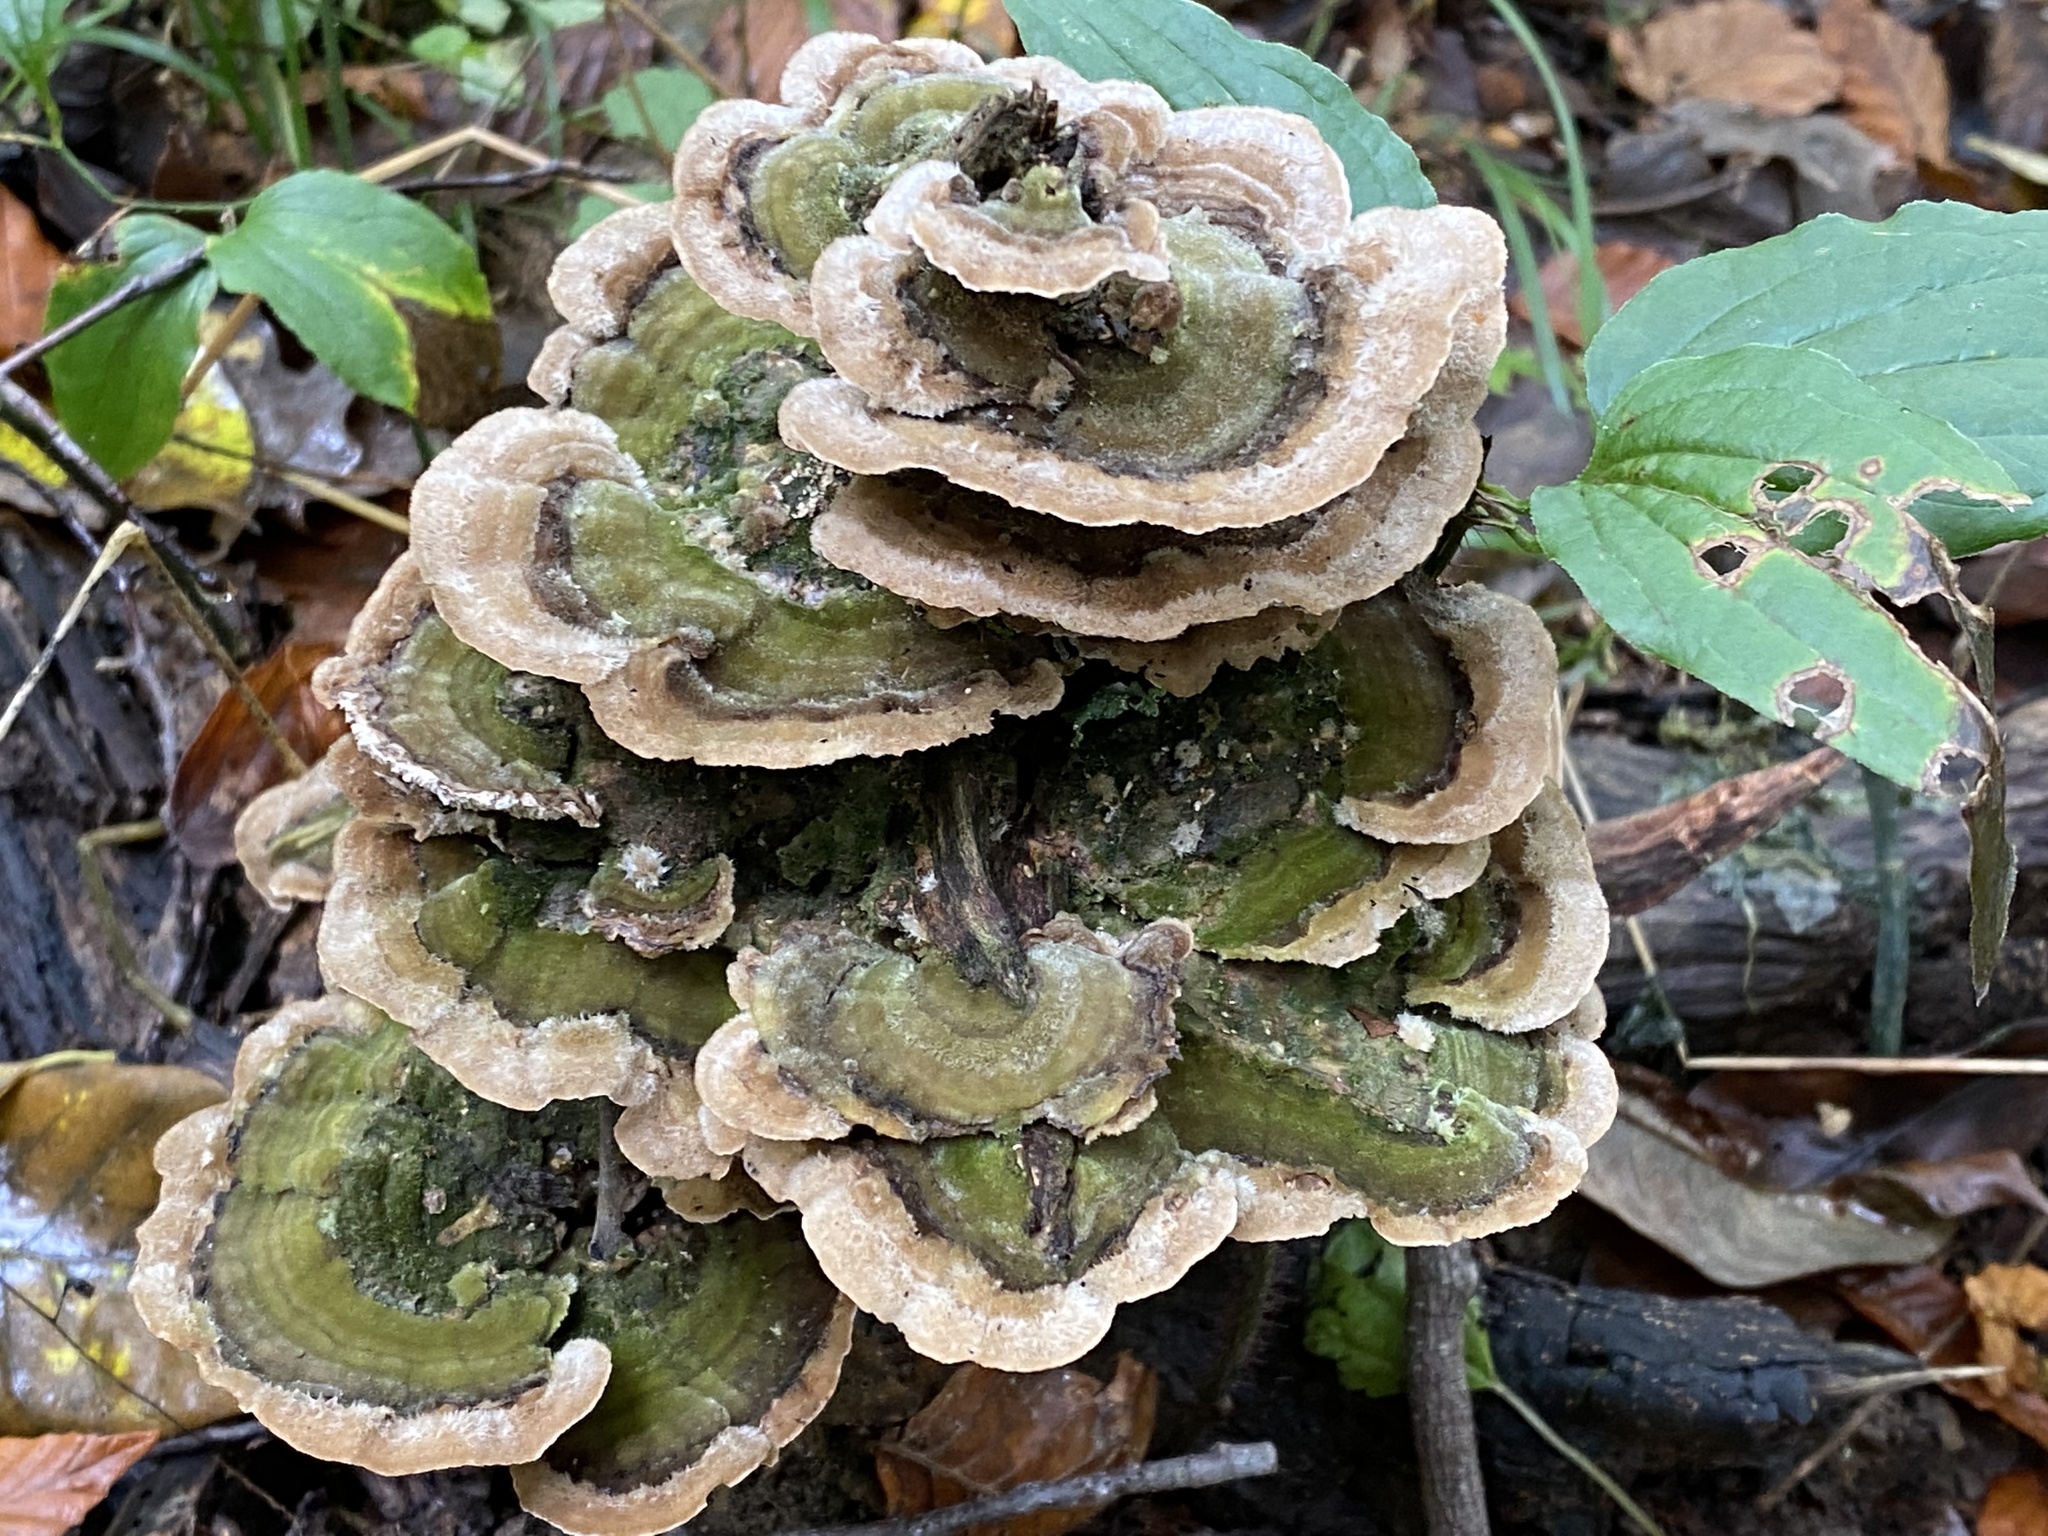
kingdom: Fungi
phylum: Basidiomycota
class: Agaricomycetes
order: Polyporales
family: Cerrenaceae
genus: Cerrena
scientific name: Cerrena unicolor
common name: Mossy maze polypore
